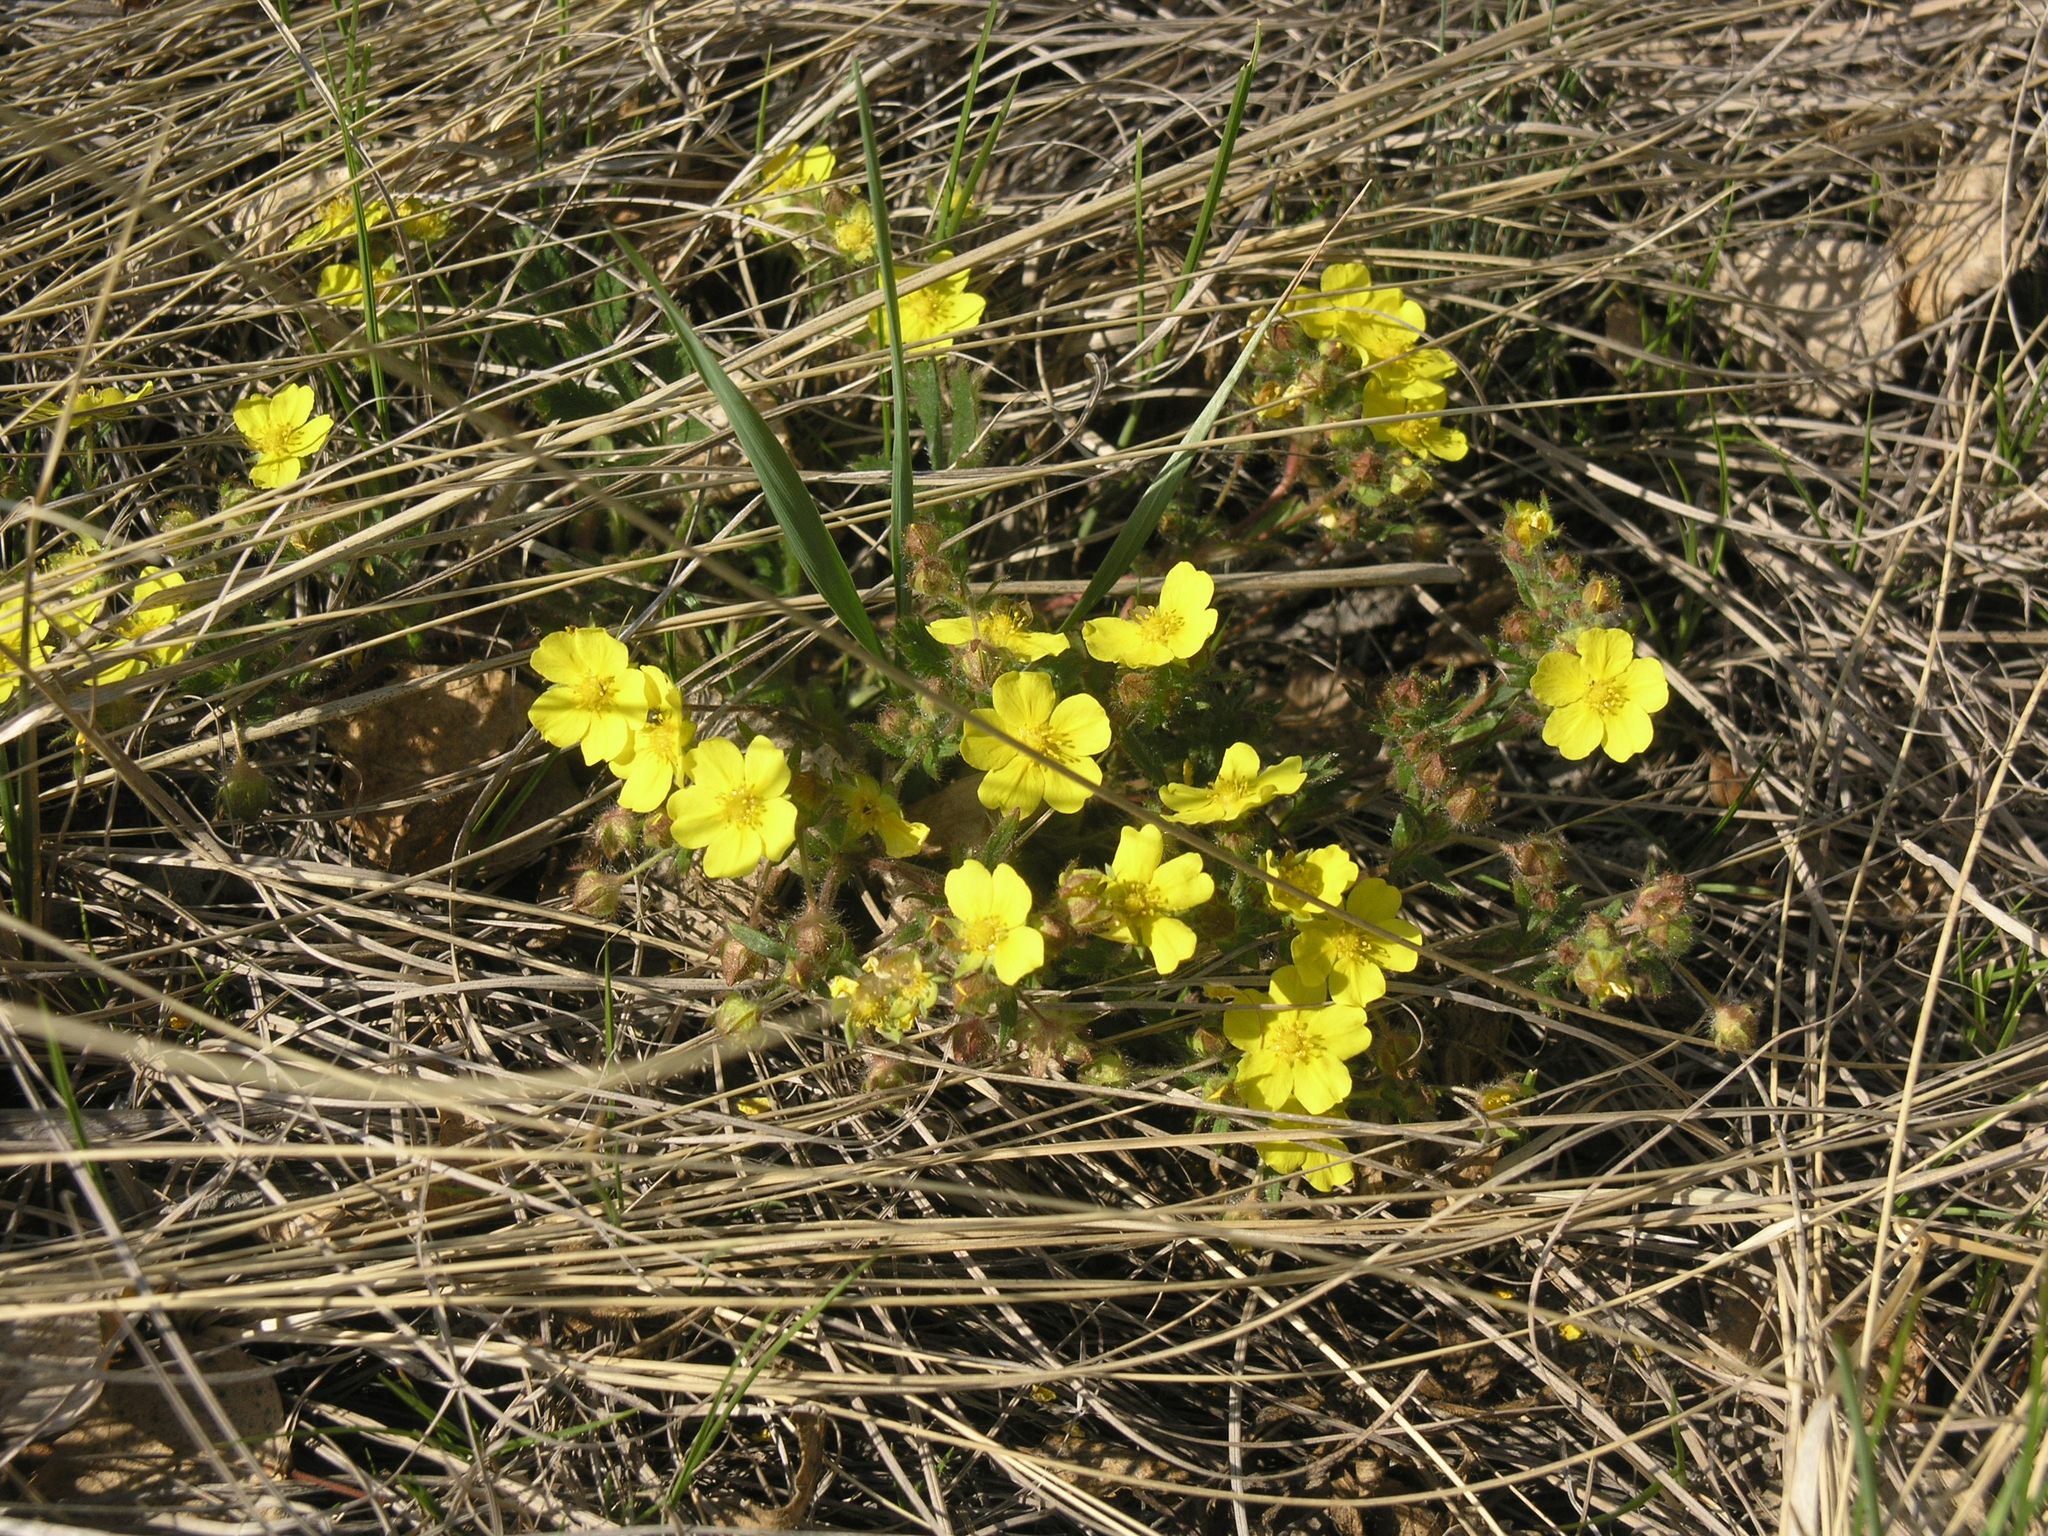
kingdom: Plantae
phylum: Tracheophyta
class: Magnoliopsida
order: Rosales
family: Rosaceae
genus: Potentilla
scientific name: Potentilla humifusa
